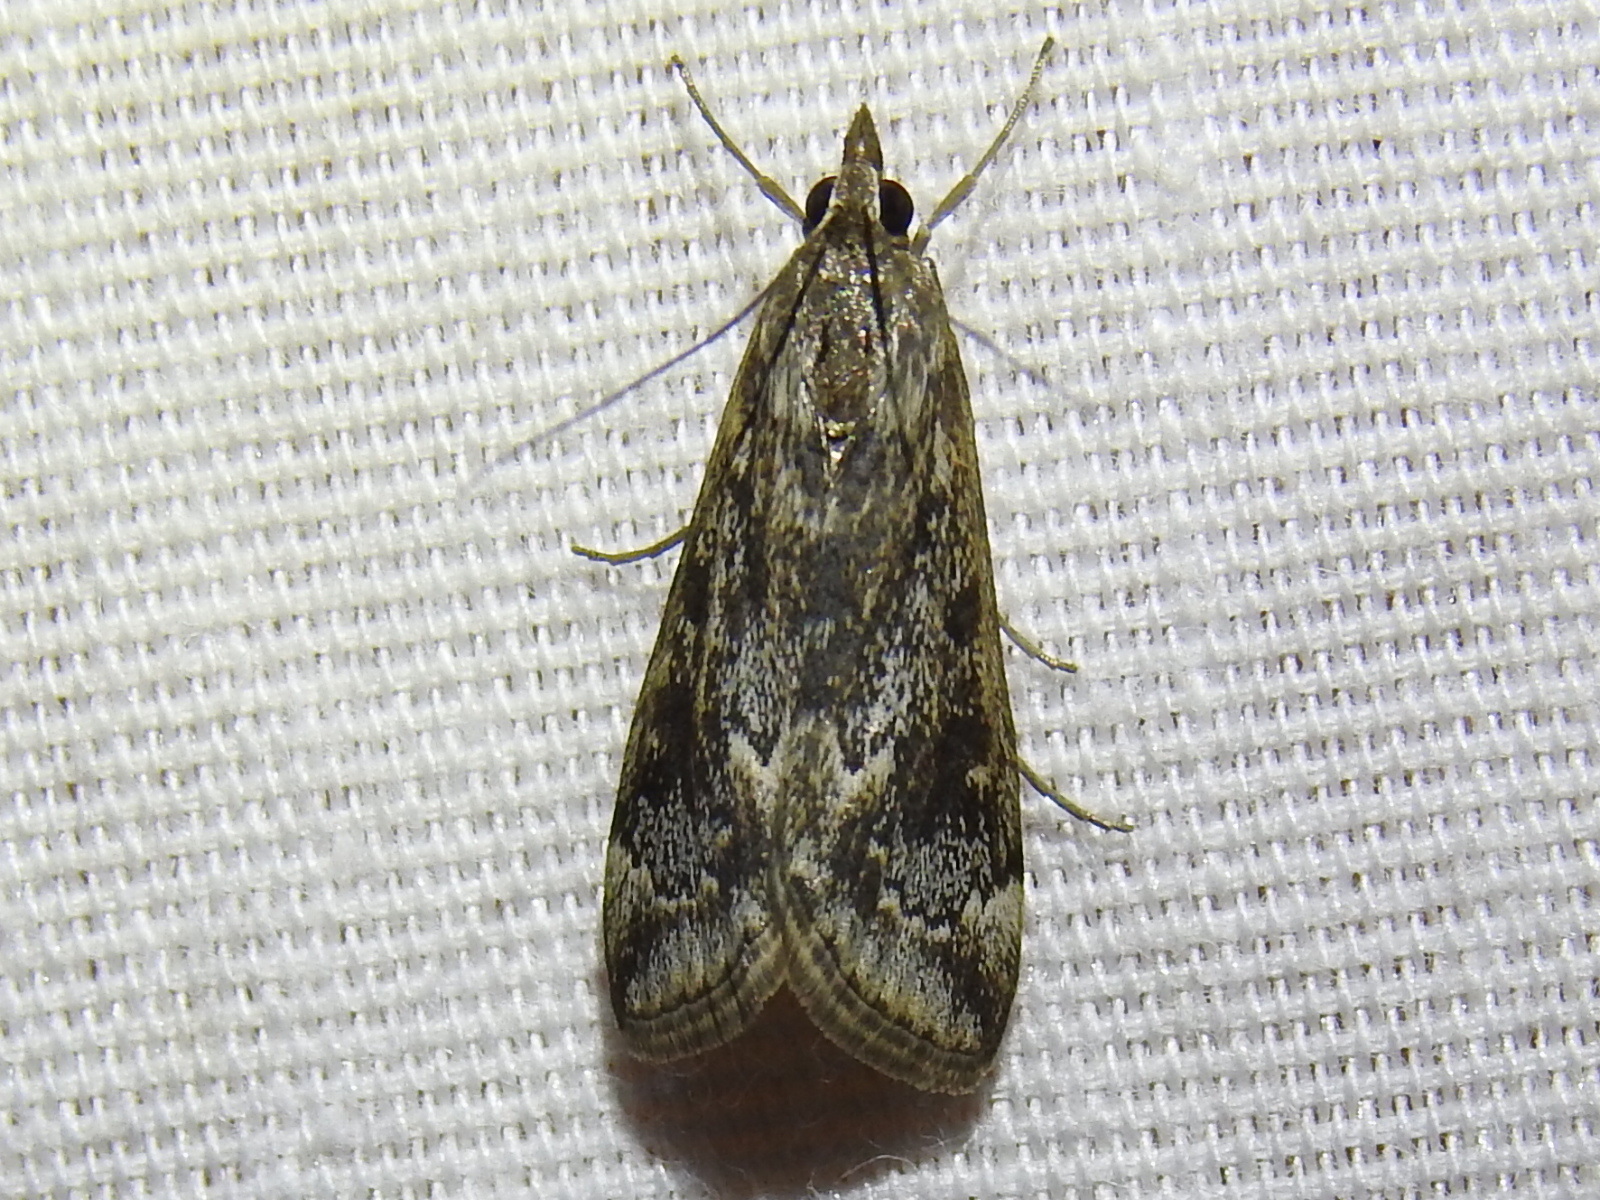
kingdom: Animalia
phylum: Arthropoda
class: Insecta
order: Lepidoptera
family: Crambidae
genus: Loxostege
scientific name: Loxostege allectalis
